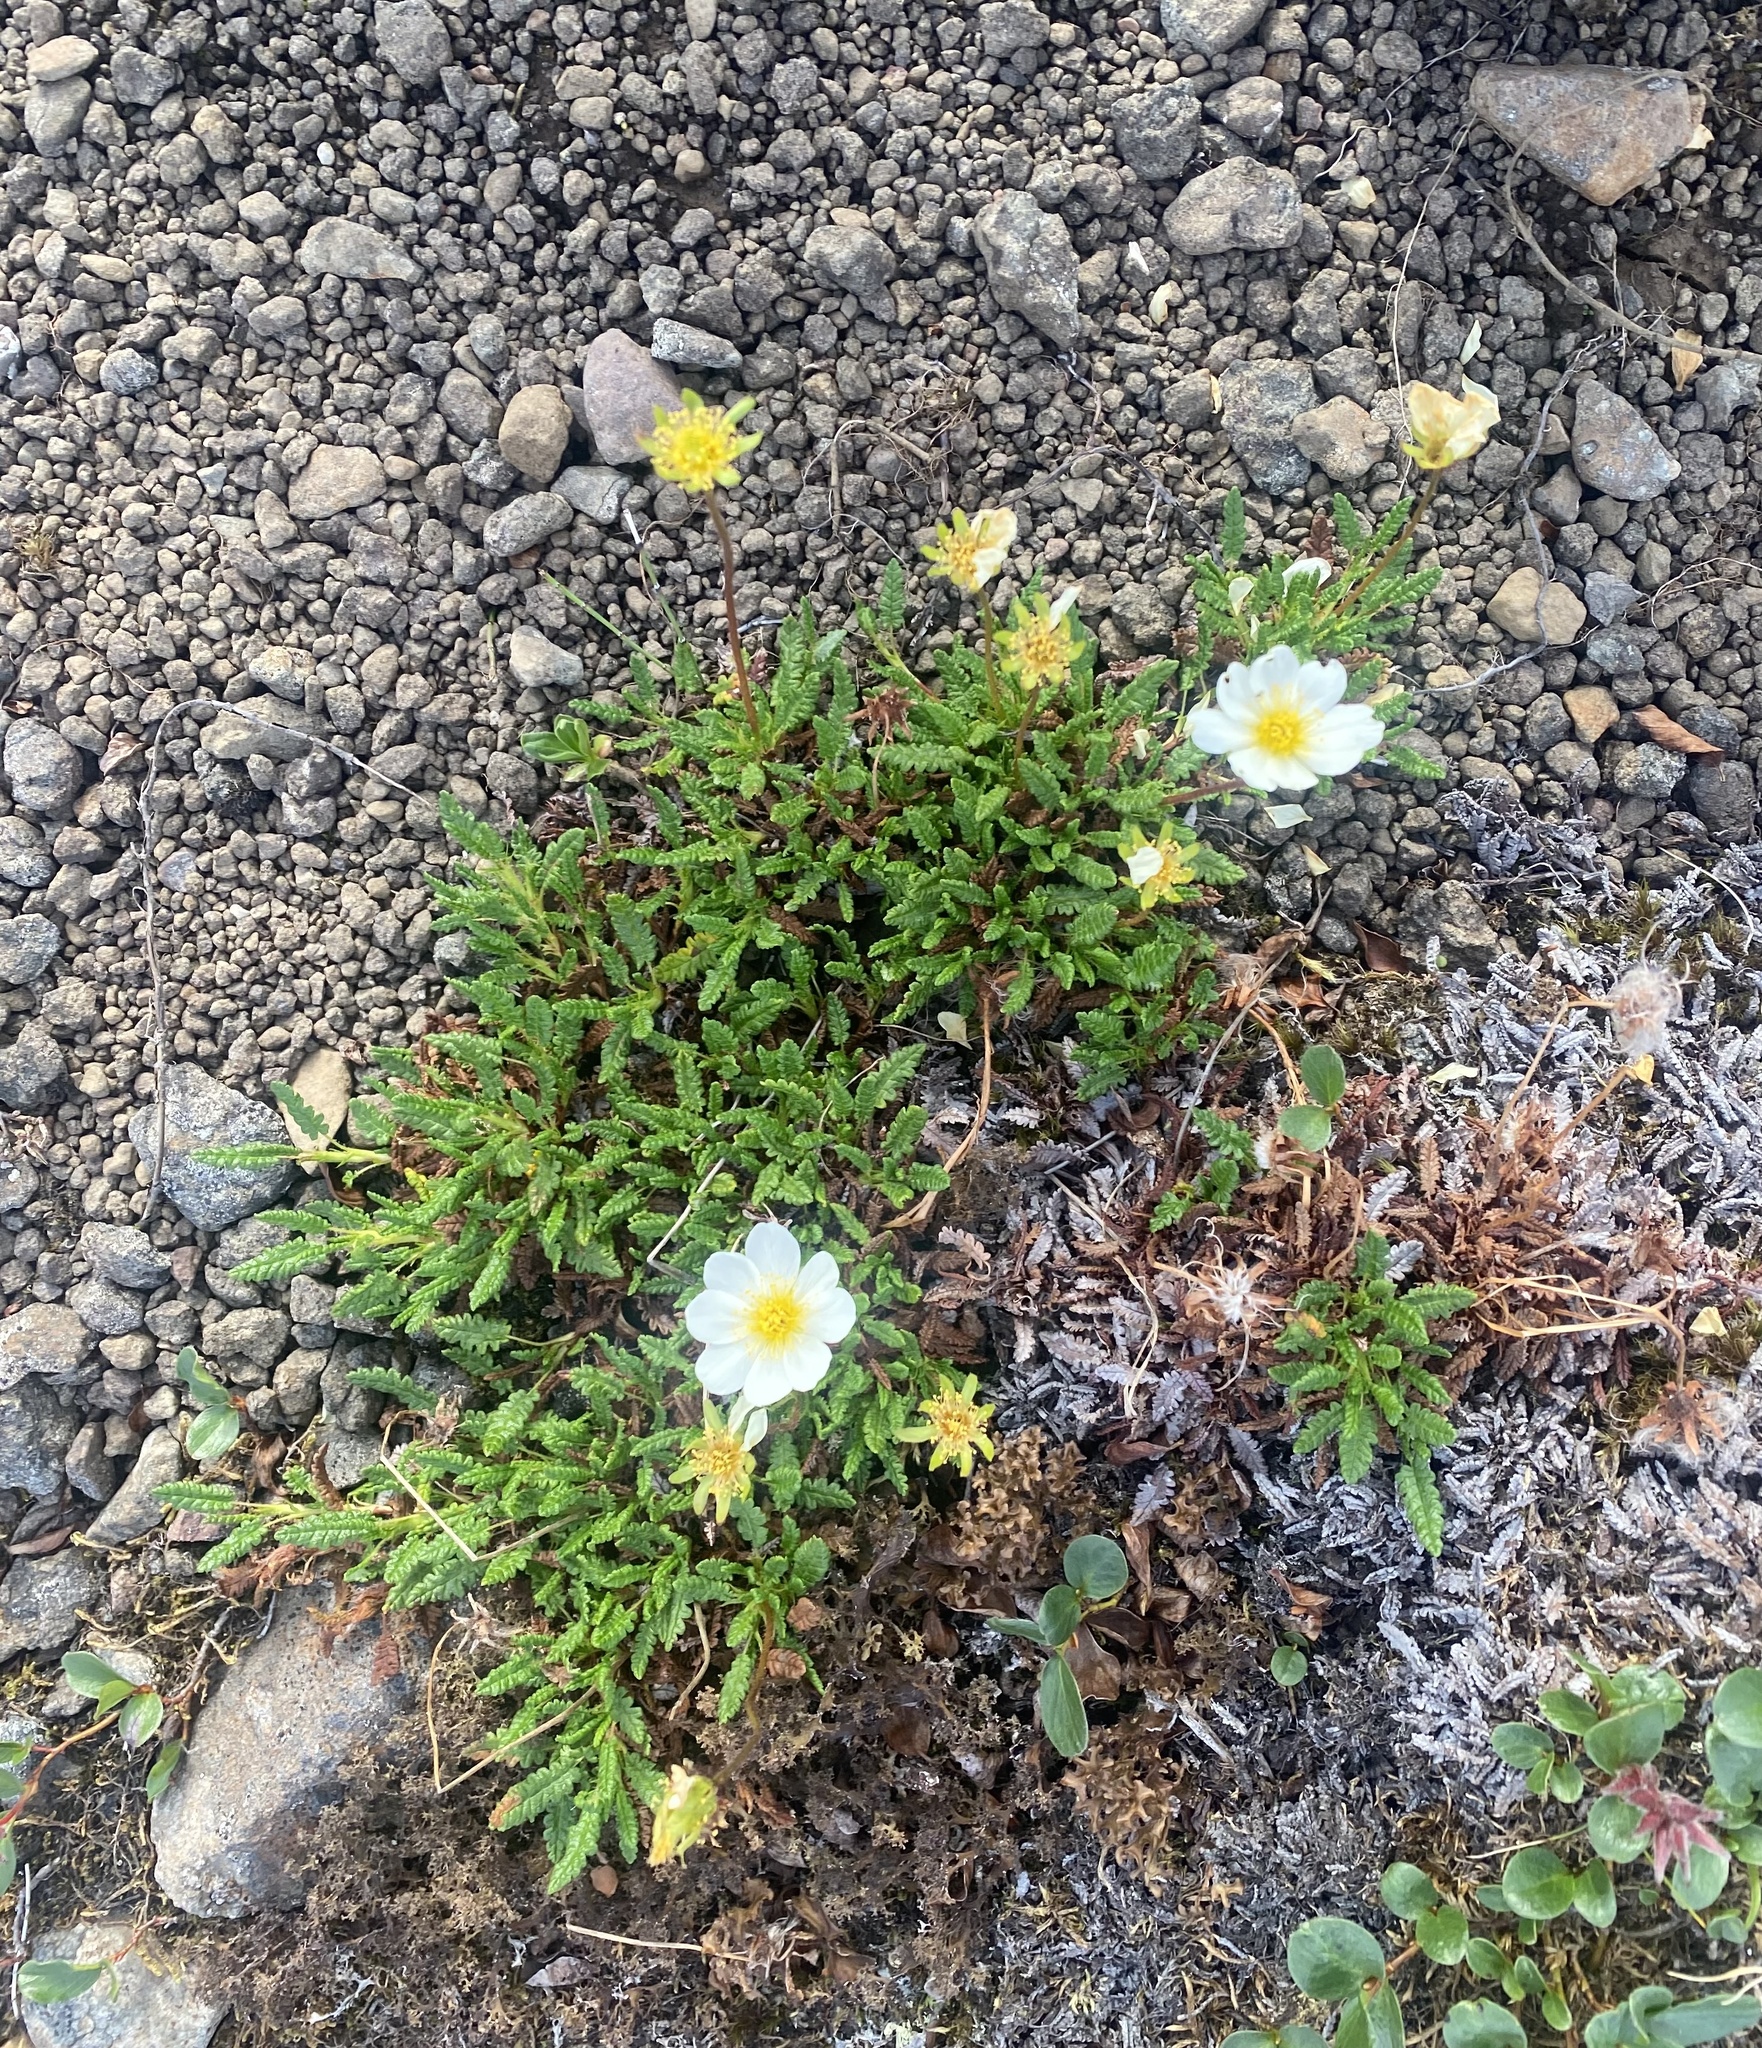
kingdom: Plantae
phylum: Tracheophyta
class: Magnoliopsida
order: Rosales
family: Rosaceae
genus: Dryas
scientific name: Dryas octopetala
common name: Eight-petal mountain-avens
